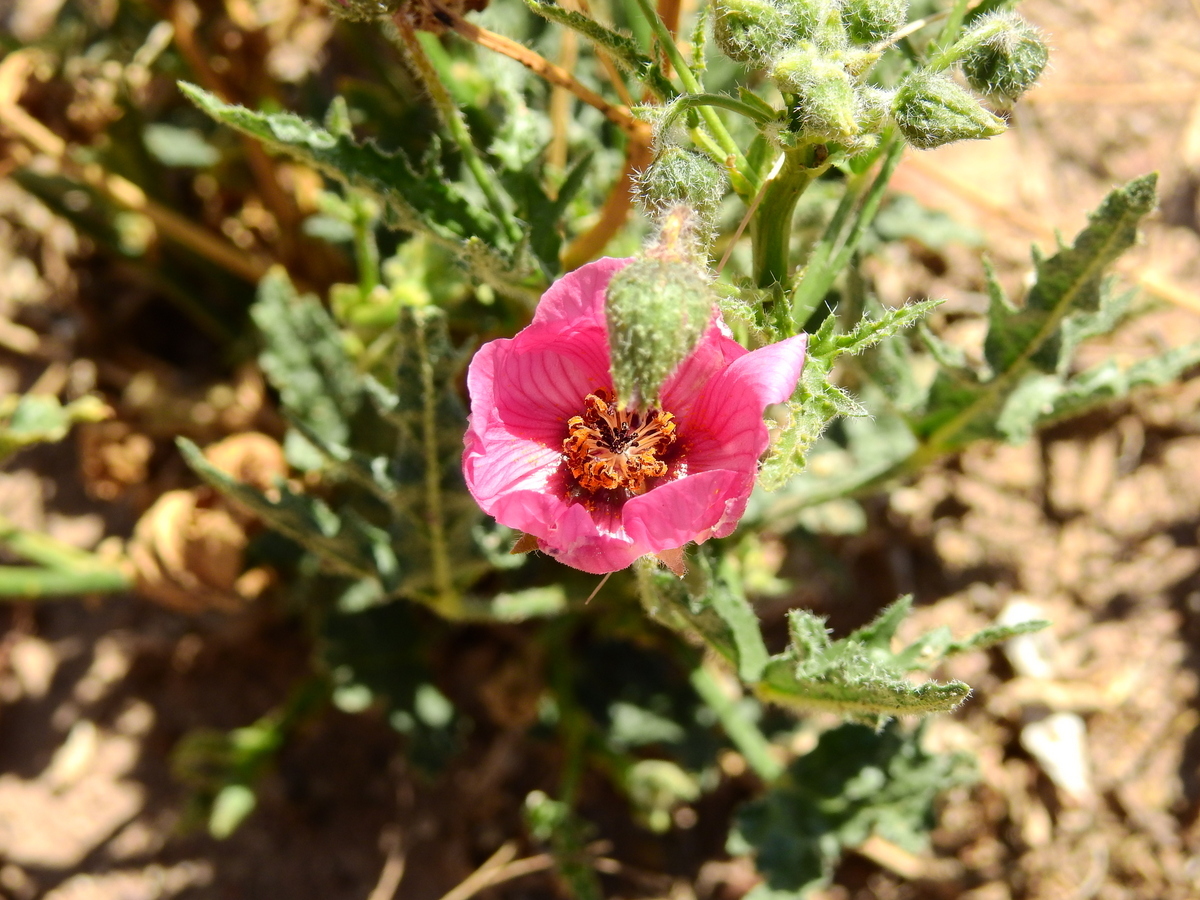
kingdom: Plantae
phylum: Tracheophyta
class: Magnoliopsida
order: Malvales
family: Malvaceae
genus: Lecanophora
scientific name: Lecanophora heterophylla
